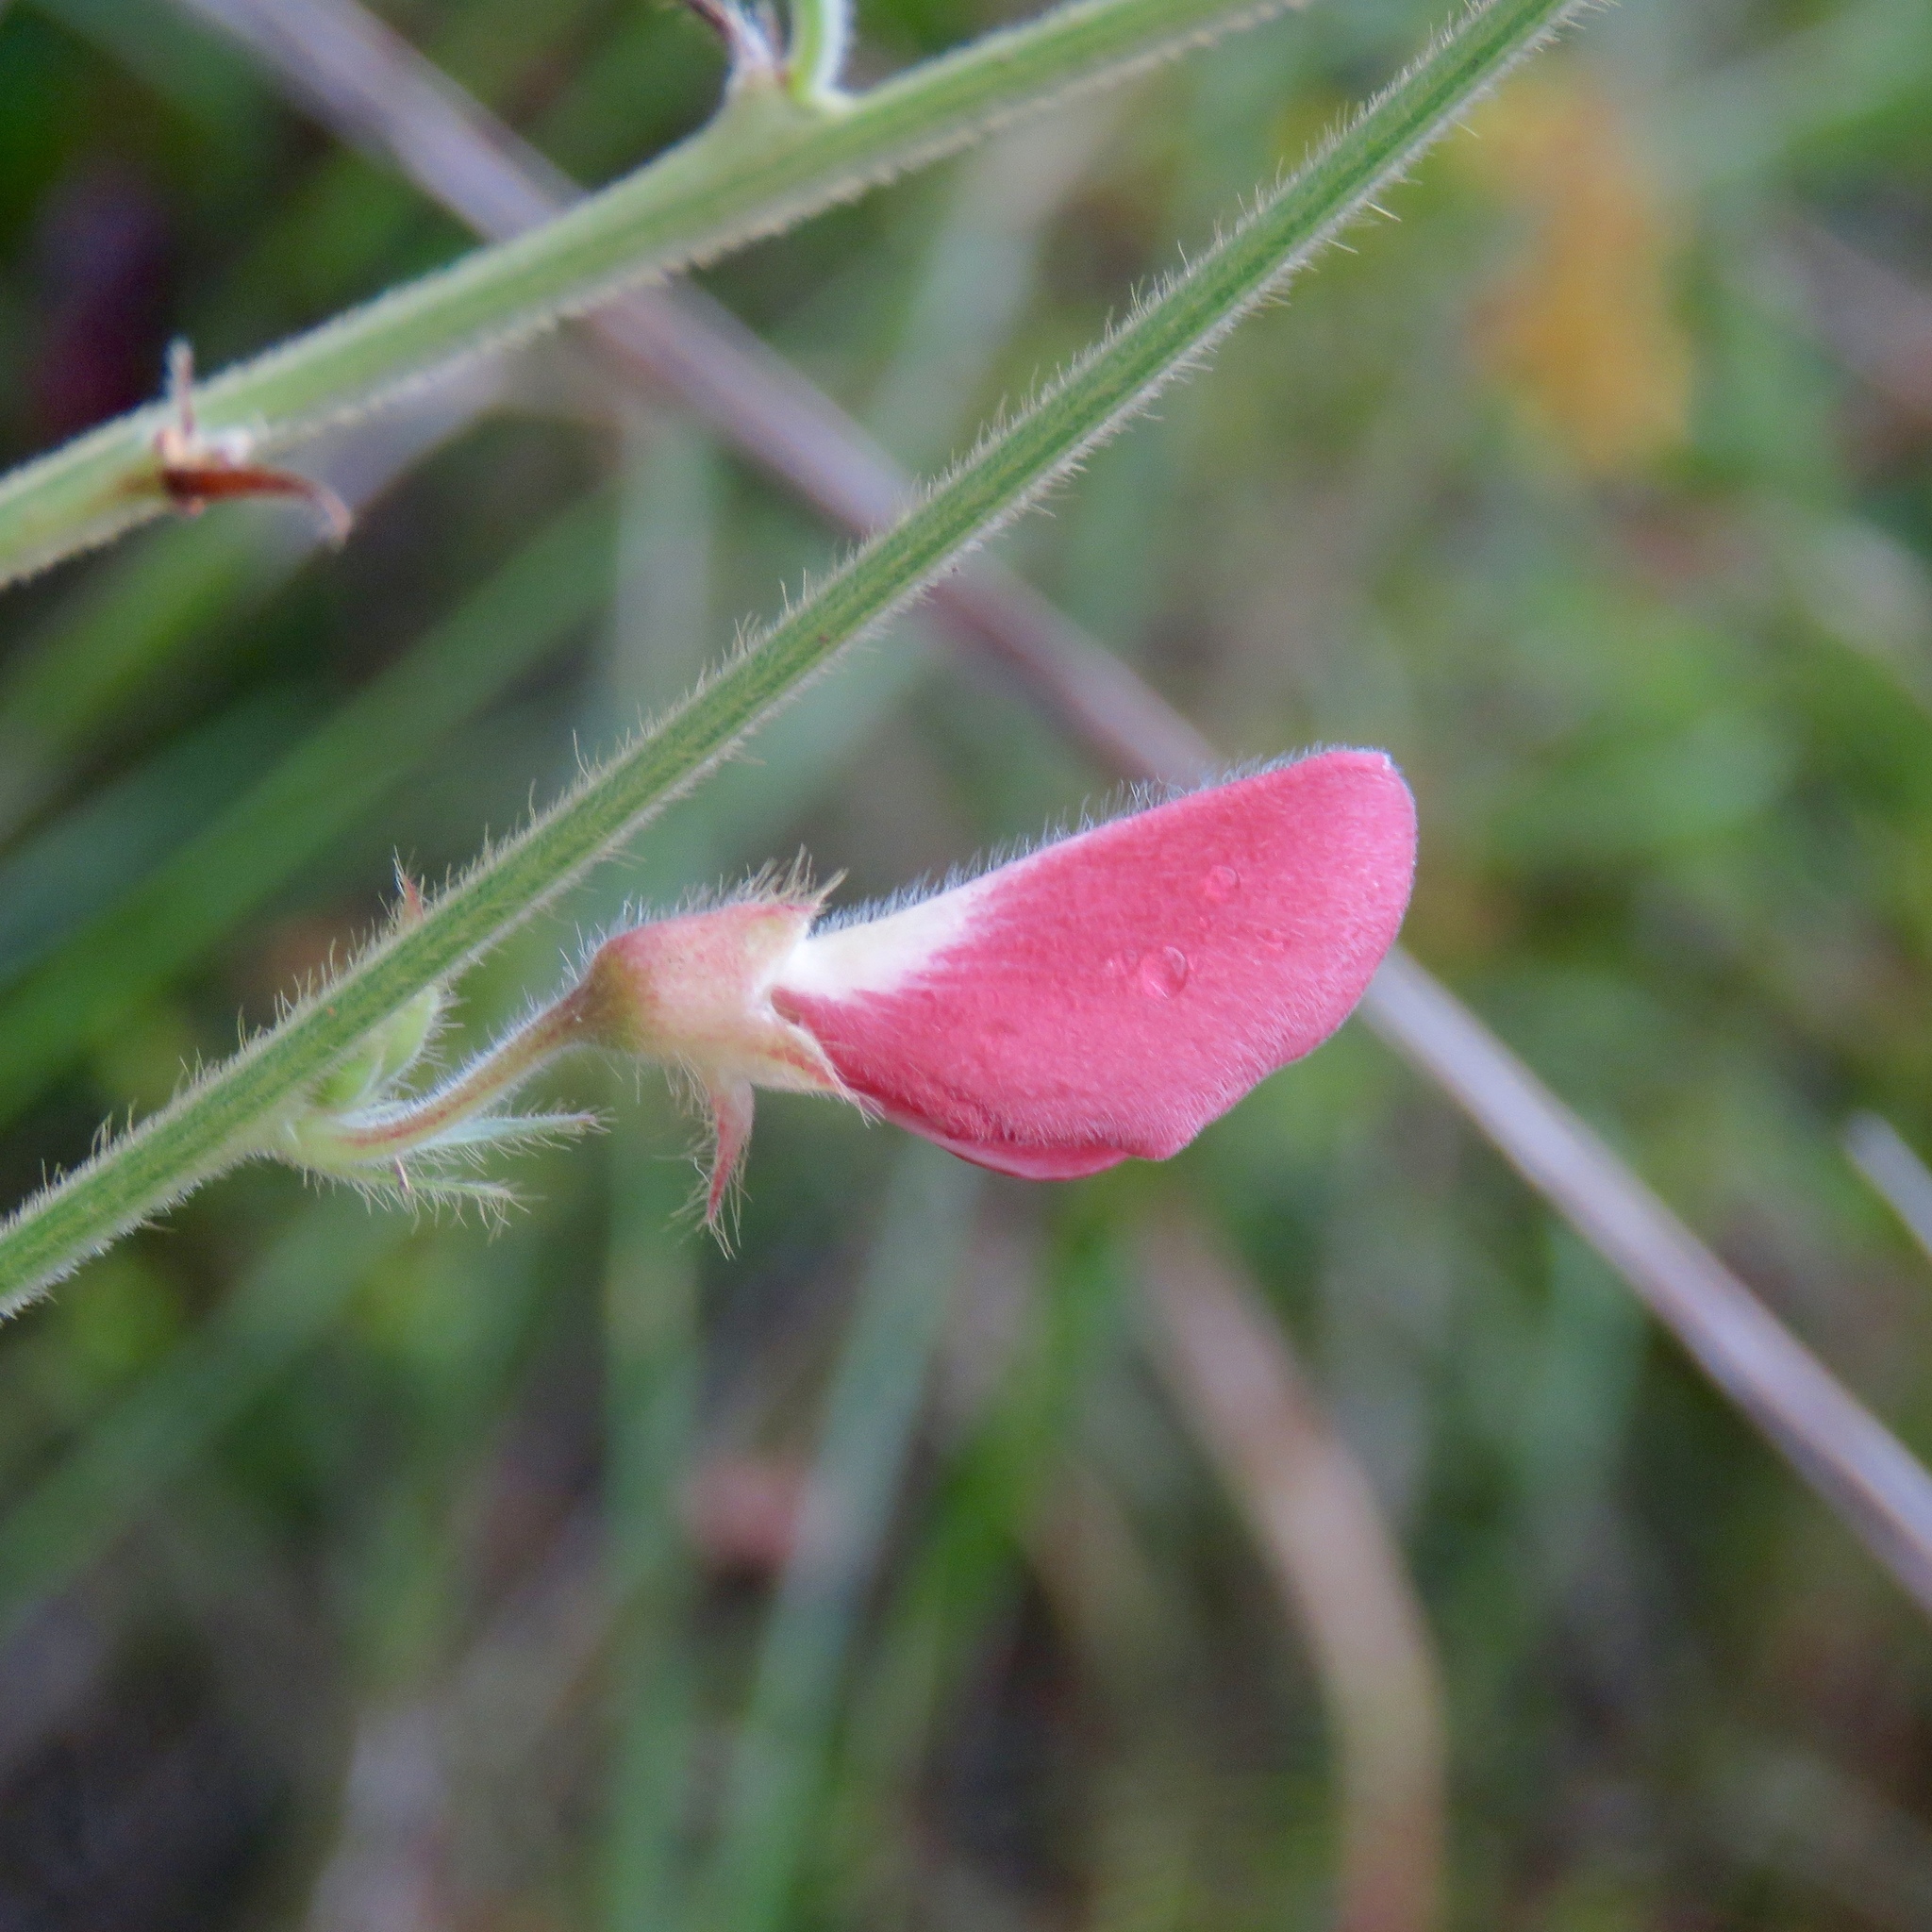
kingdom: Plantae
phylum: Tracheophyta
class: Magnoliopsida
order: Fabales
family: Fabaceae
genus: Tephrosia
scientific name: Tephrosia onobrychoides
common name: Multi-bloom hoary-pea
